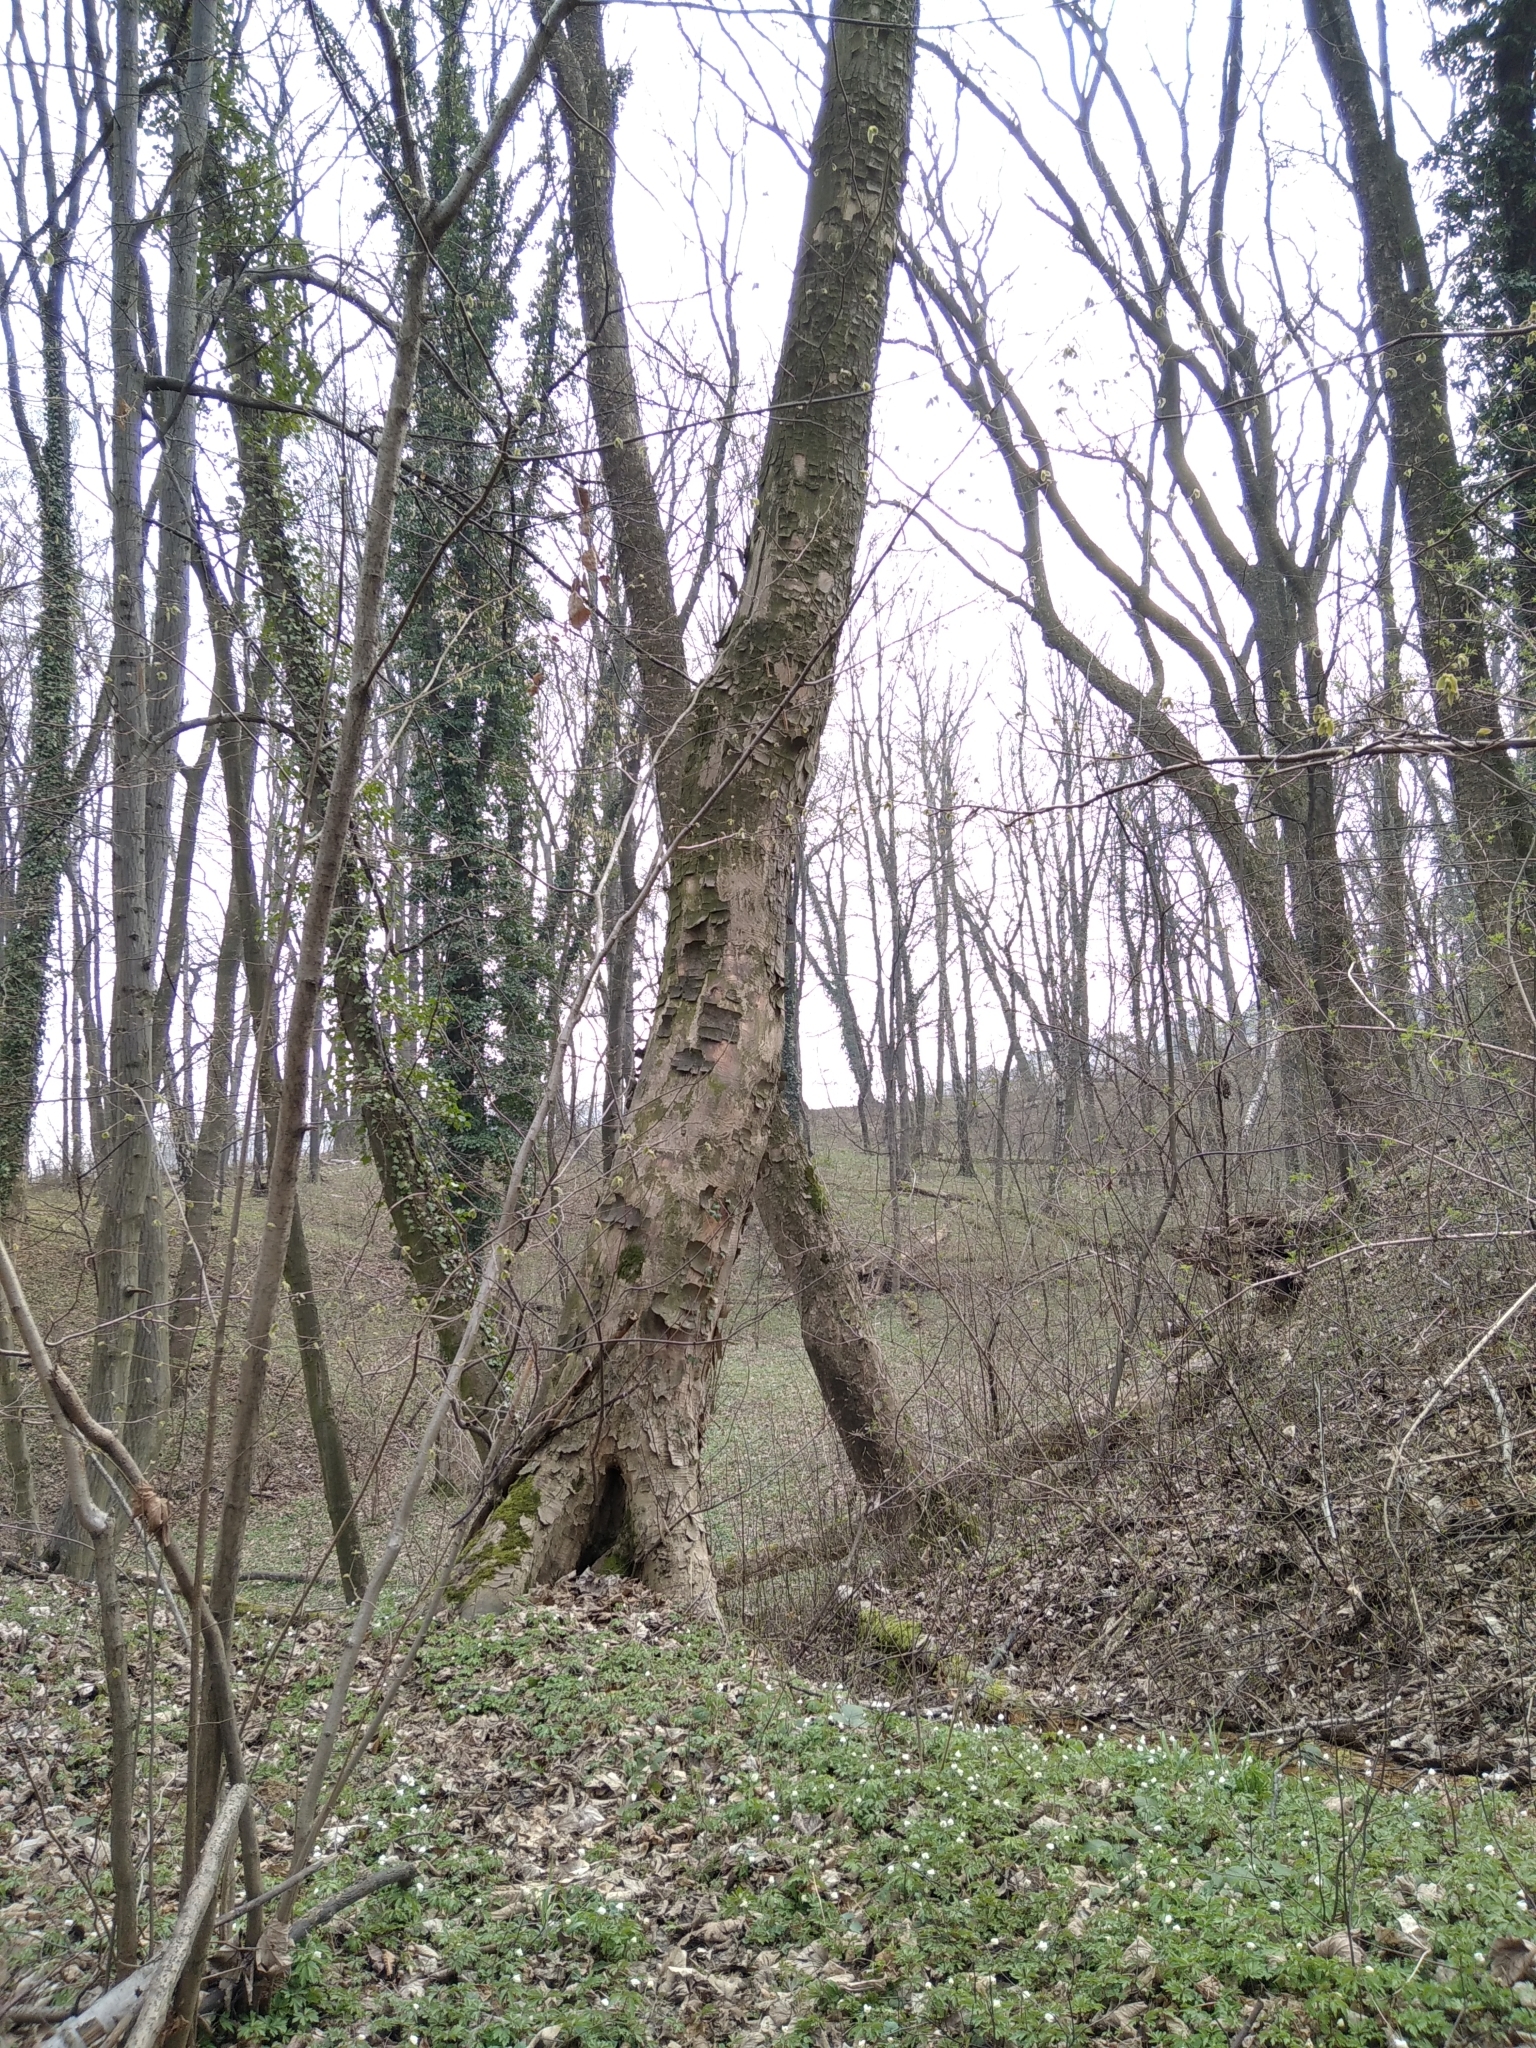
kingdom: Plantae
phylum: Tracheophyta
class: Magnoliopsida
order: Sapindales
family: Sapindaceae
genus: Acer
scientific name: Acer pseudoplatanus
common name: Sycamore
